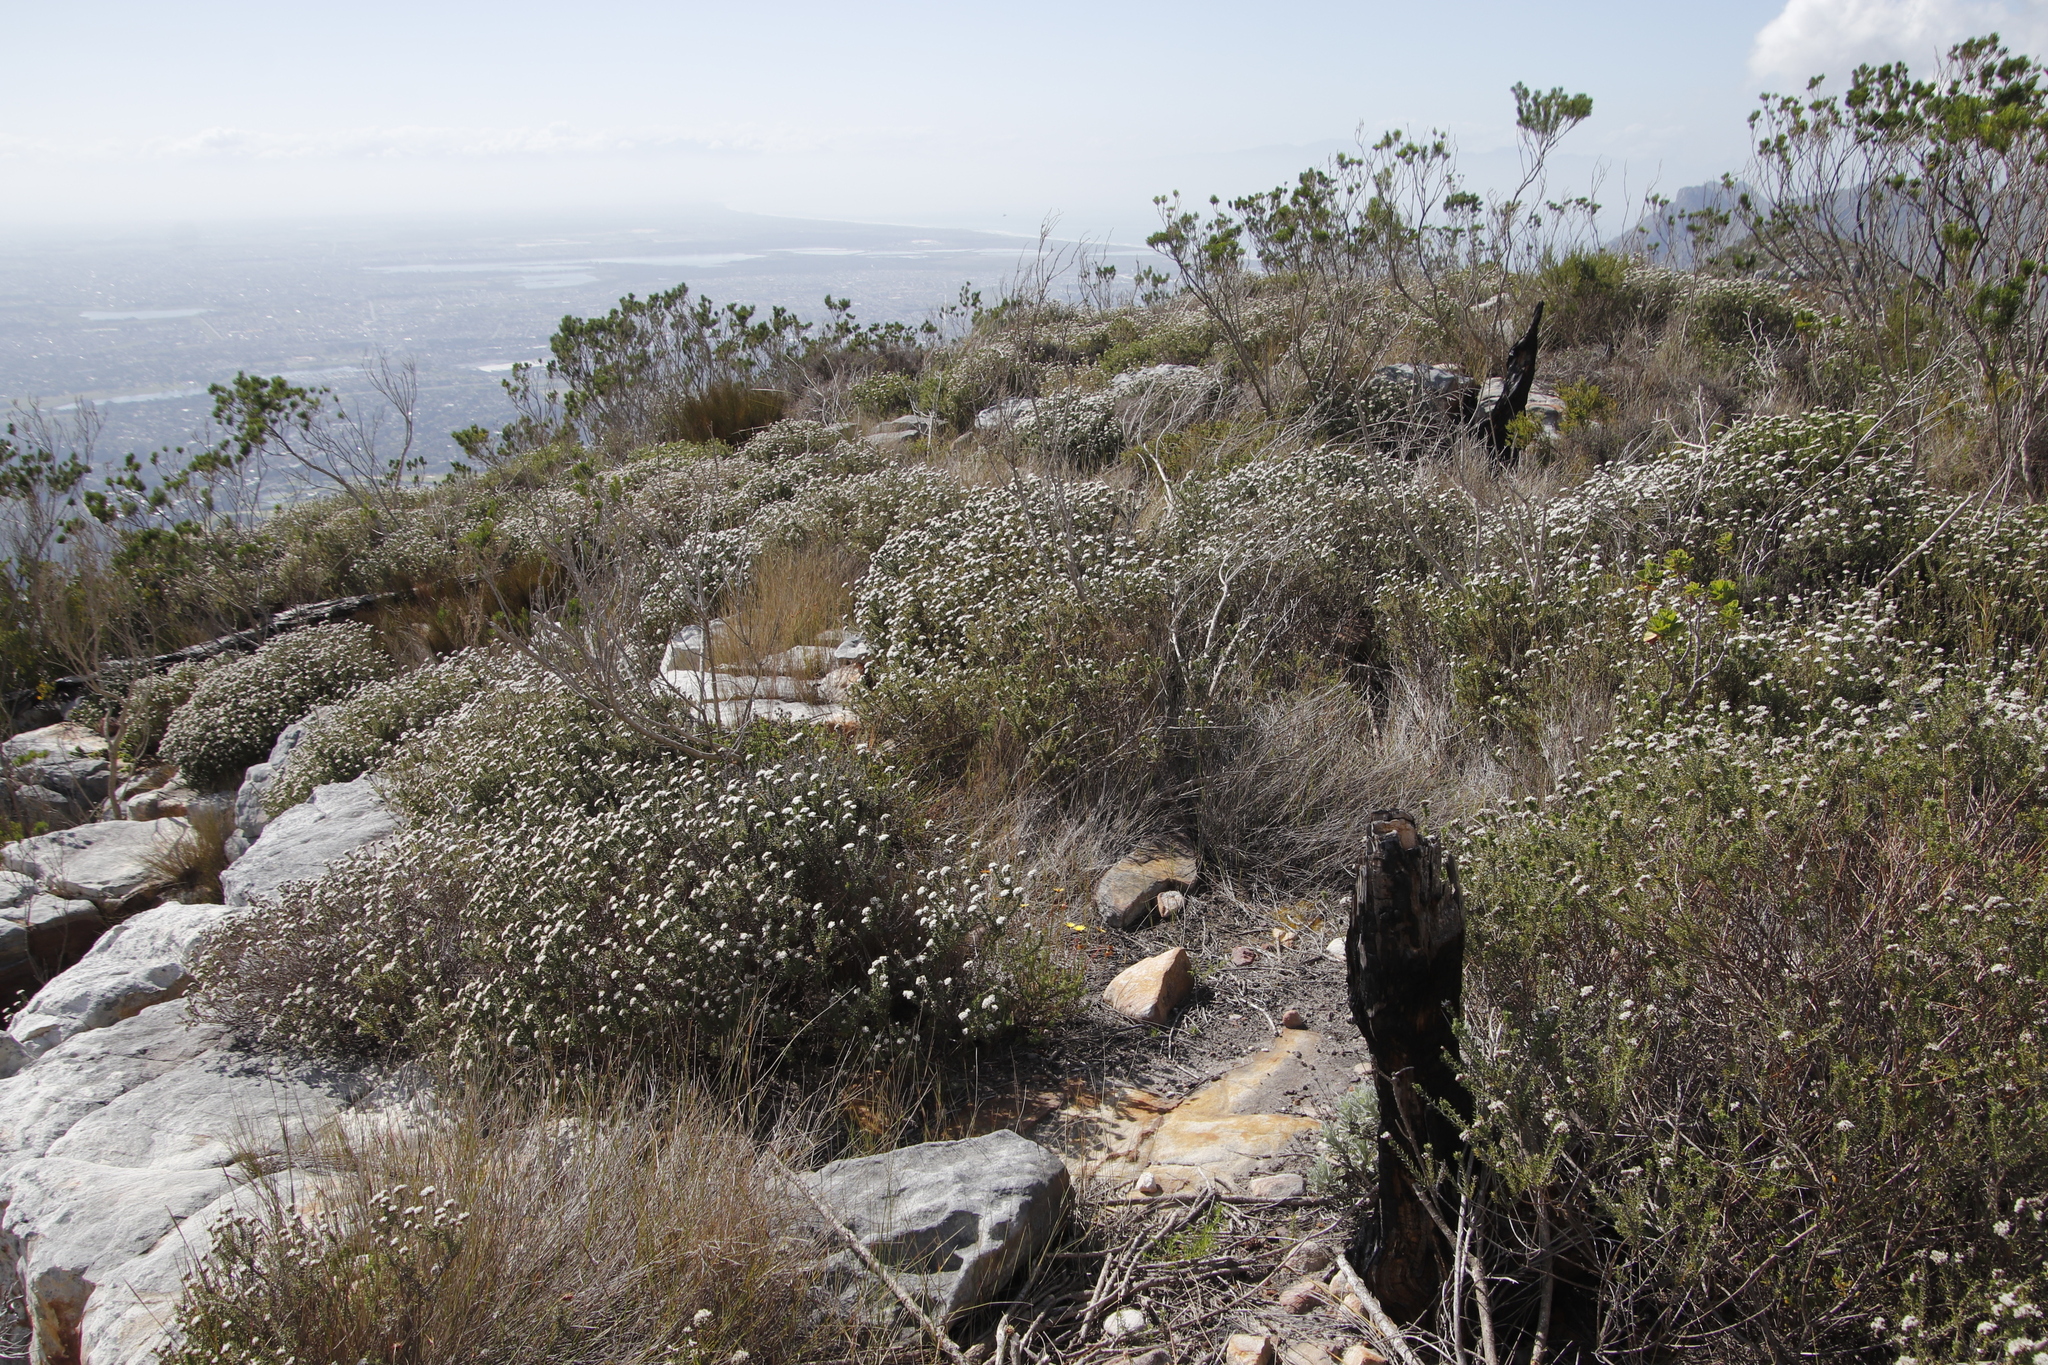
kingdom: Plantae
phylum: Tracheophyta
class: Magnoliopsida
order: Fabales
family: Fabaceae
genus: Psoralea
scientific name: Psoralea pinnata
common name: African scurfpea
